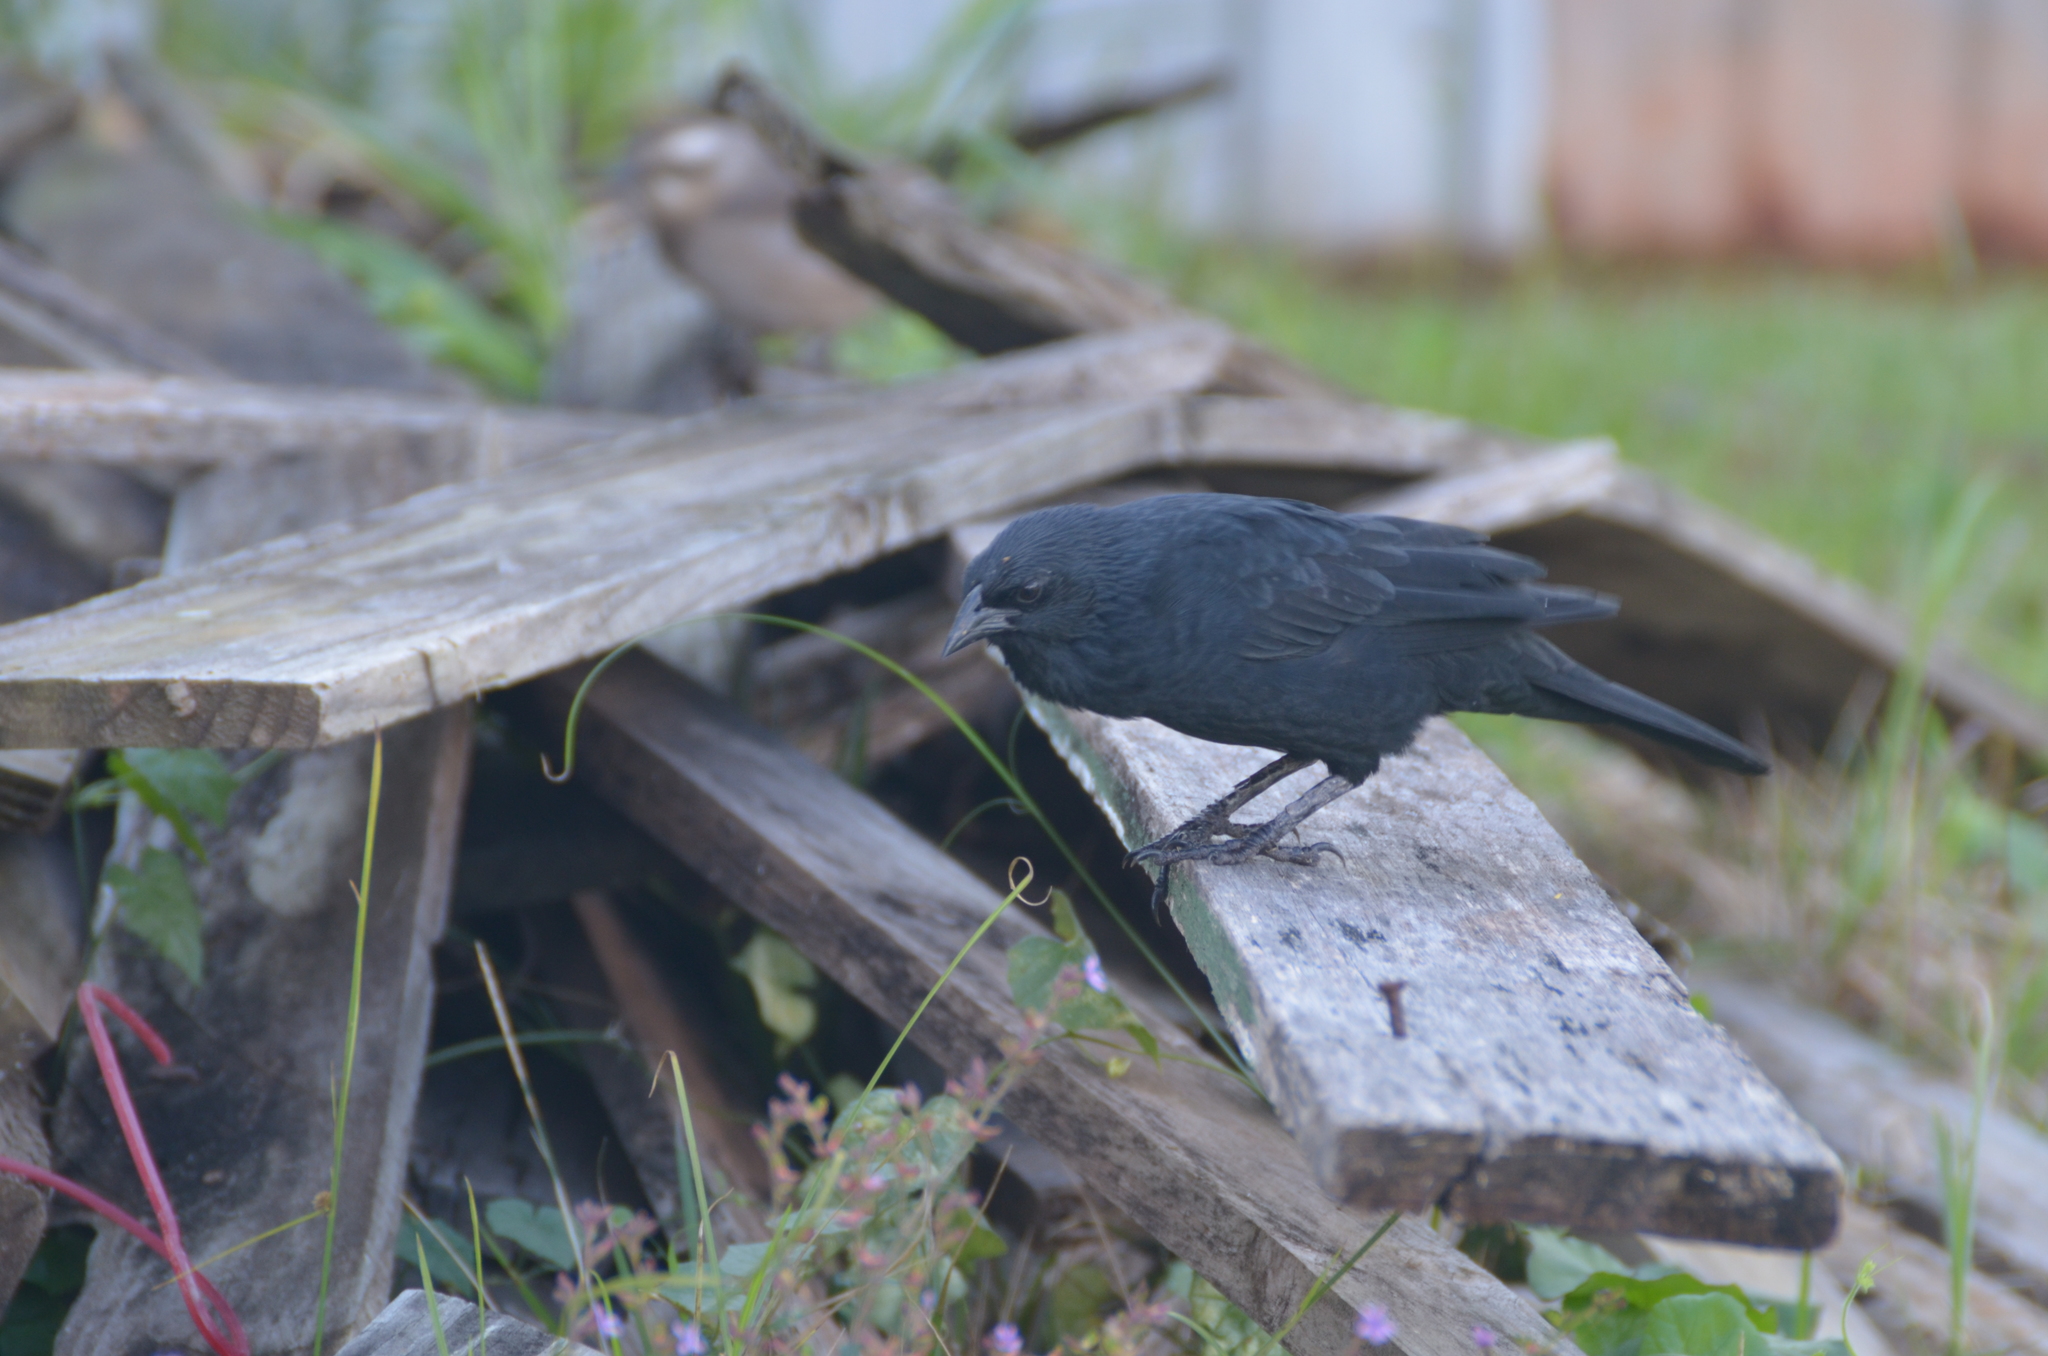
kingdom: Animalia
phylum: Chordata
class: Aves
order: Passeriformes
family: Icteridae
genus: Gnorimopsar
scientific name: Gnorimopsar chopi
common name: Chopi blackbird
